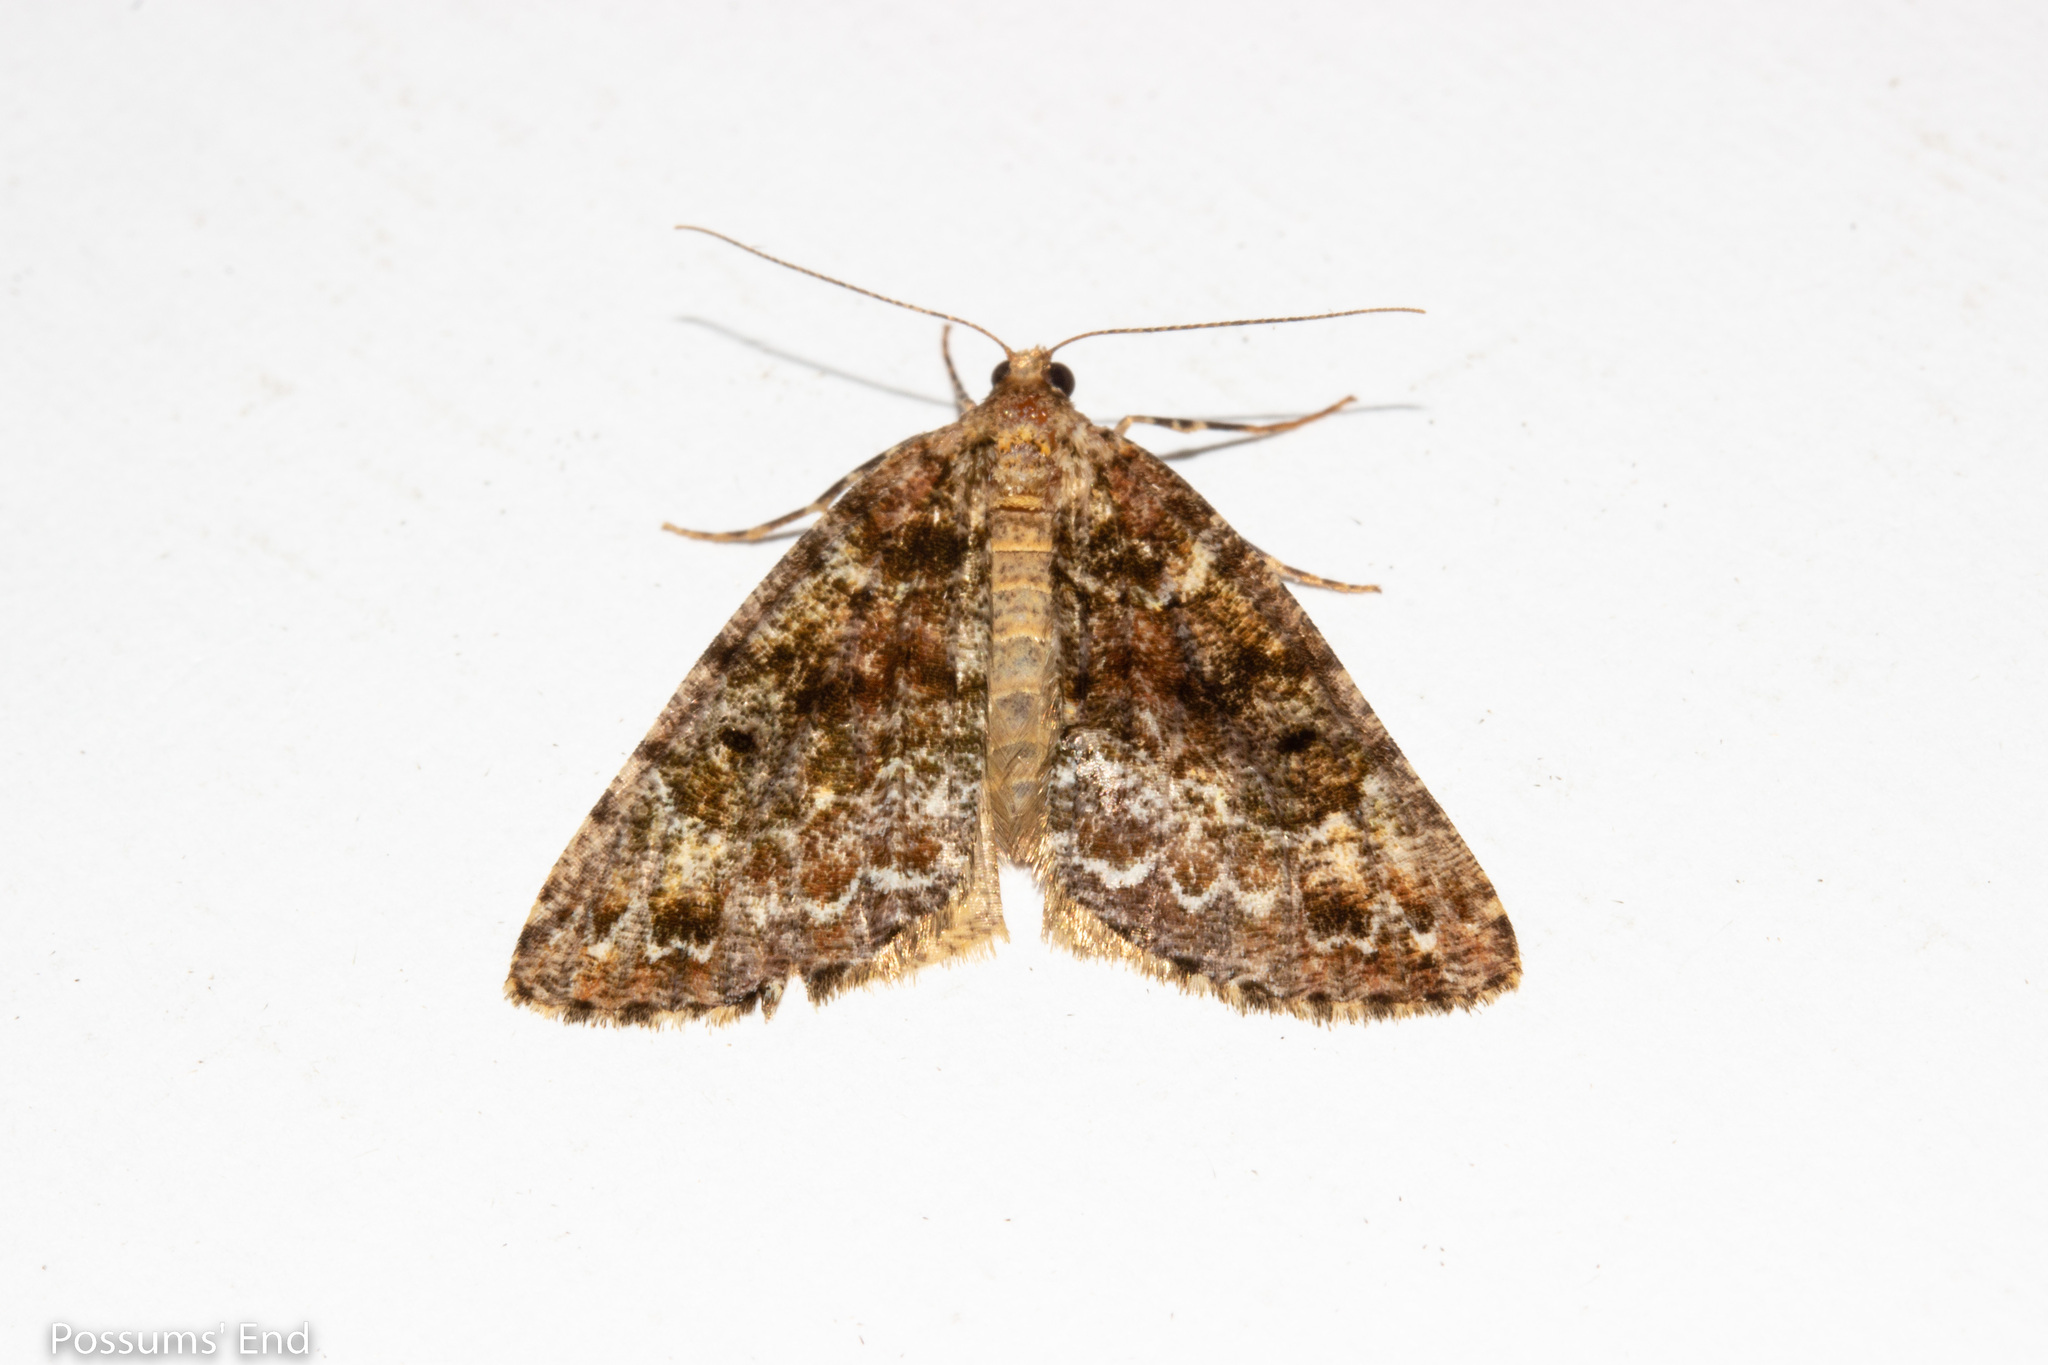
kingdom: Animalia
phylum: Arthropoda
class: Insecta
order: Lepidoptera
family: Geometridae
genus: Pseudocoremia
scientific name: Pseudocoremia productata
